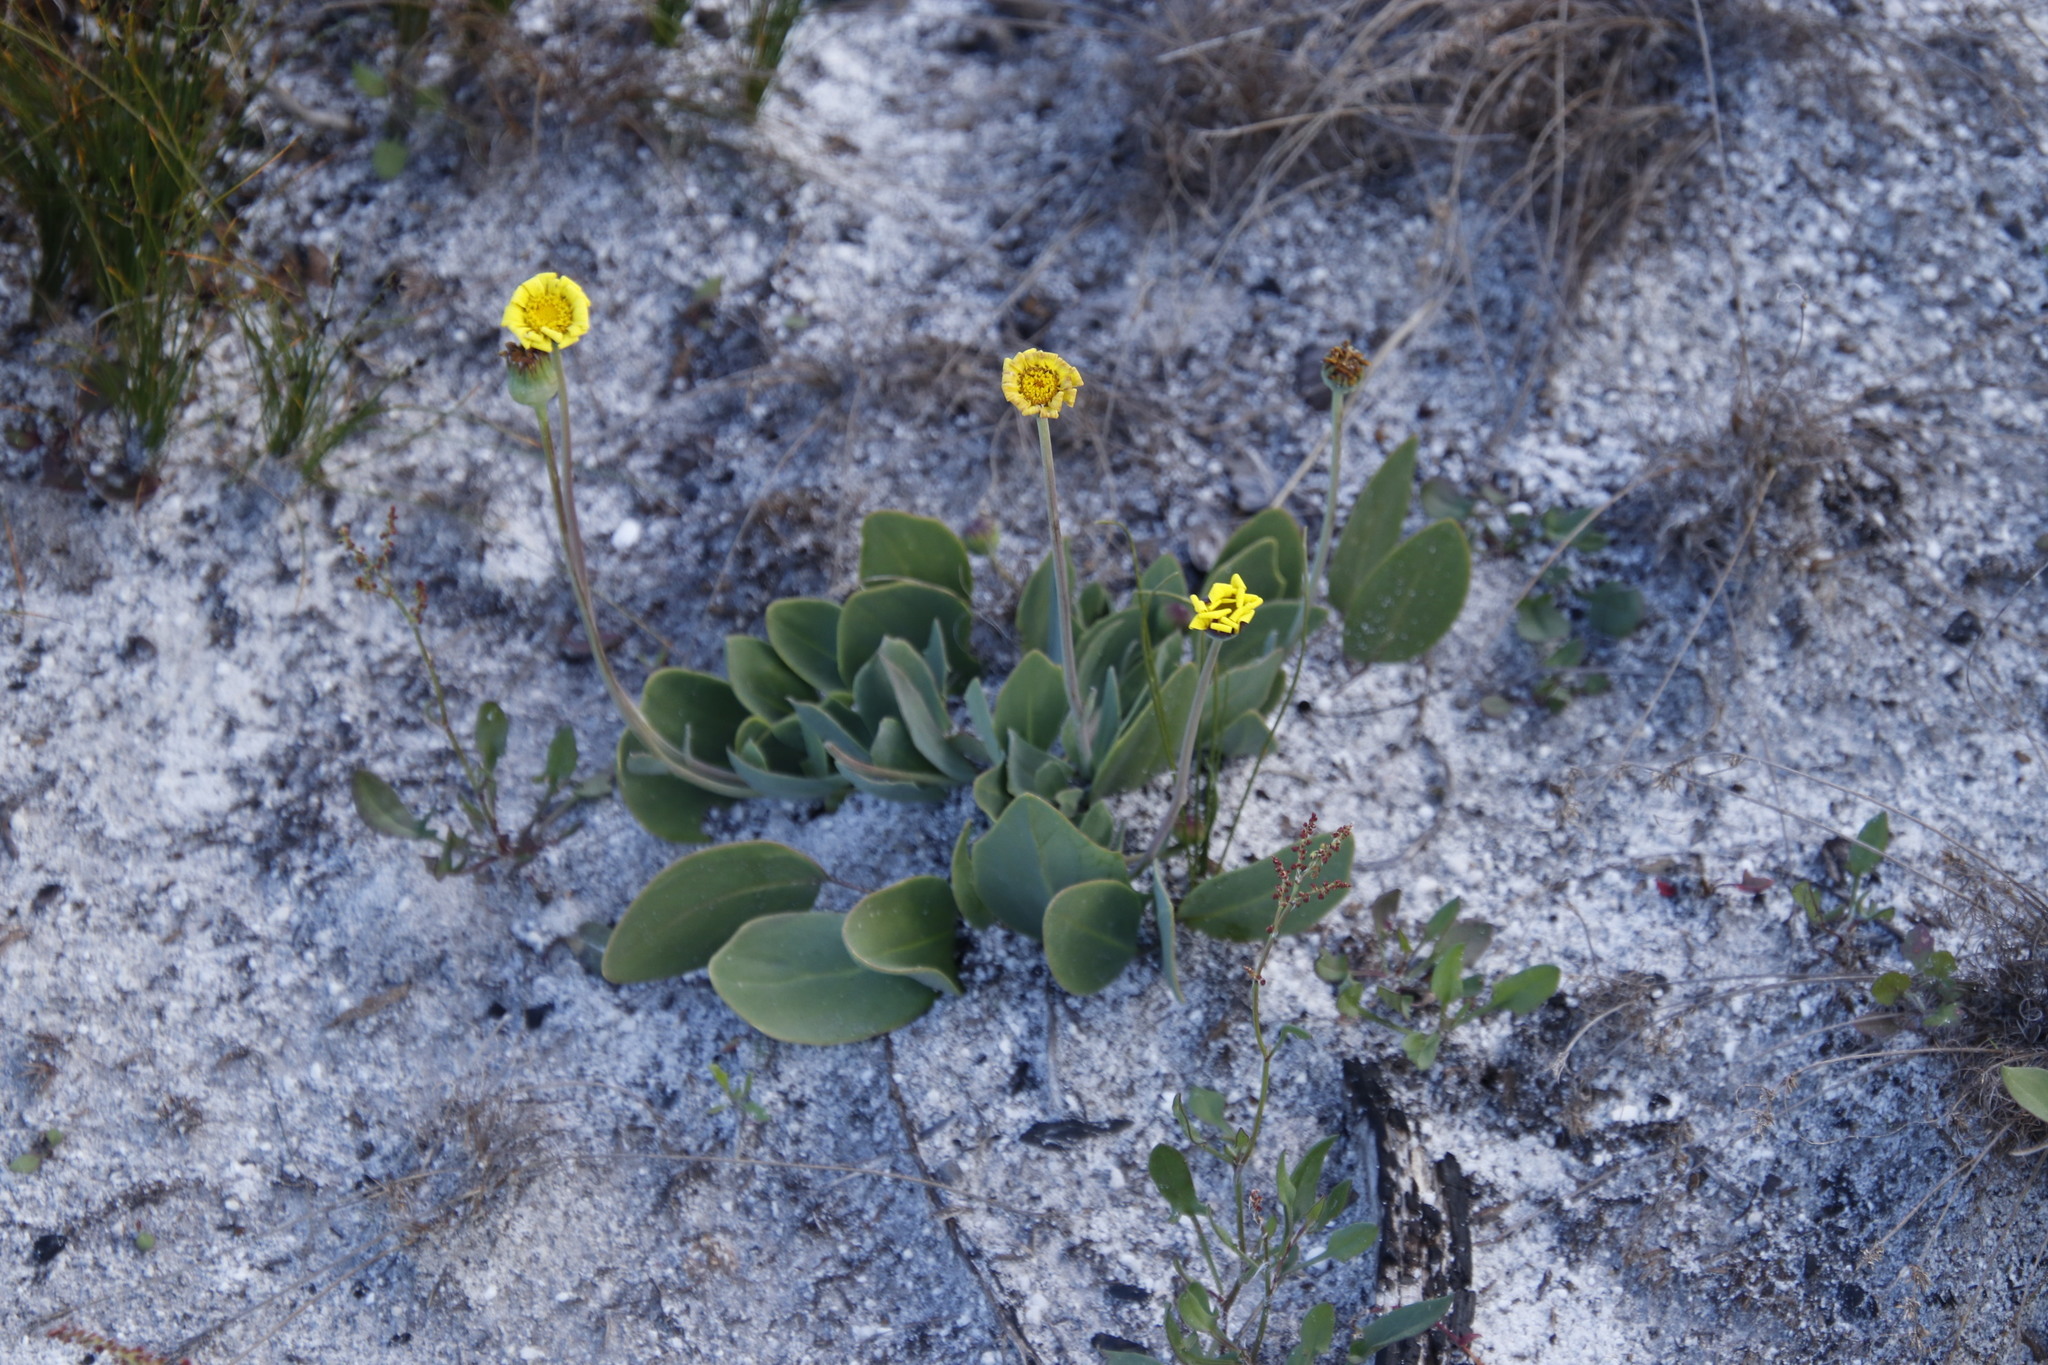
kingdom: Plantae
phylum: Tracheophyta
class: Magnoliopsida
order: Asterales
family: Asteraceae
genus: Othonna
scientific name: Othonna bulbosa
